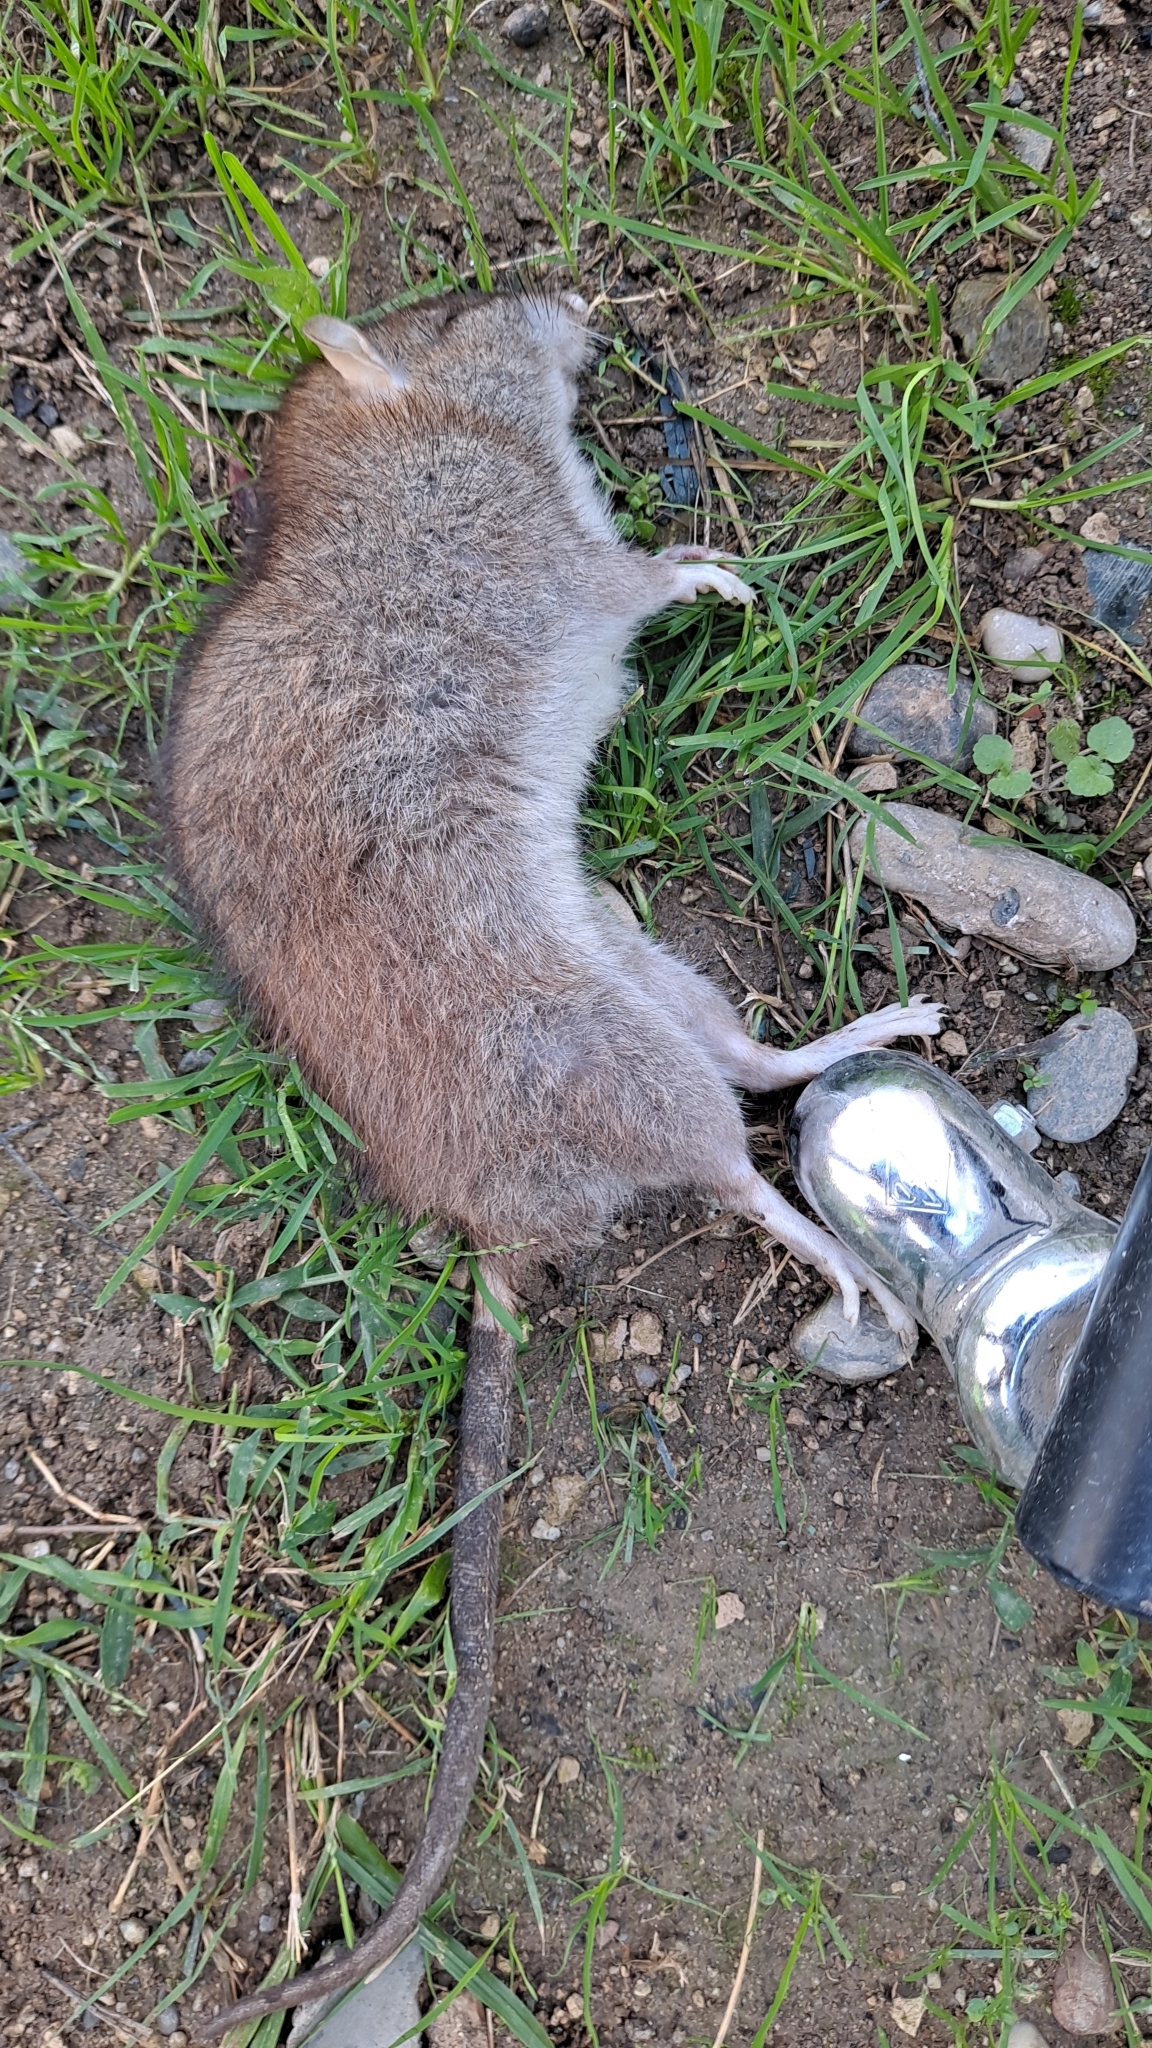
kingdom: Animalia
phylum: Chordata
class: Mammalia
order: Rodentia
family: Muridae
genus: Rattus
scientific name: Rattus norvegicus
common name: Brown rat
